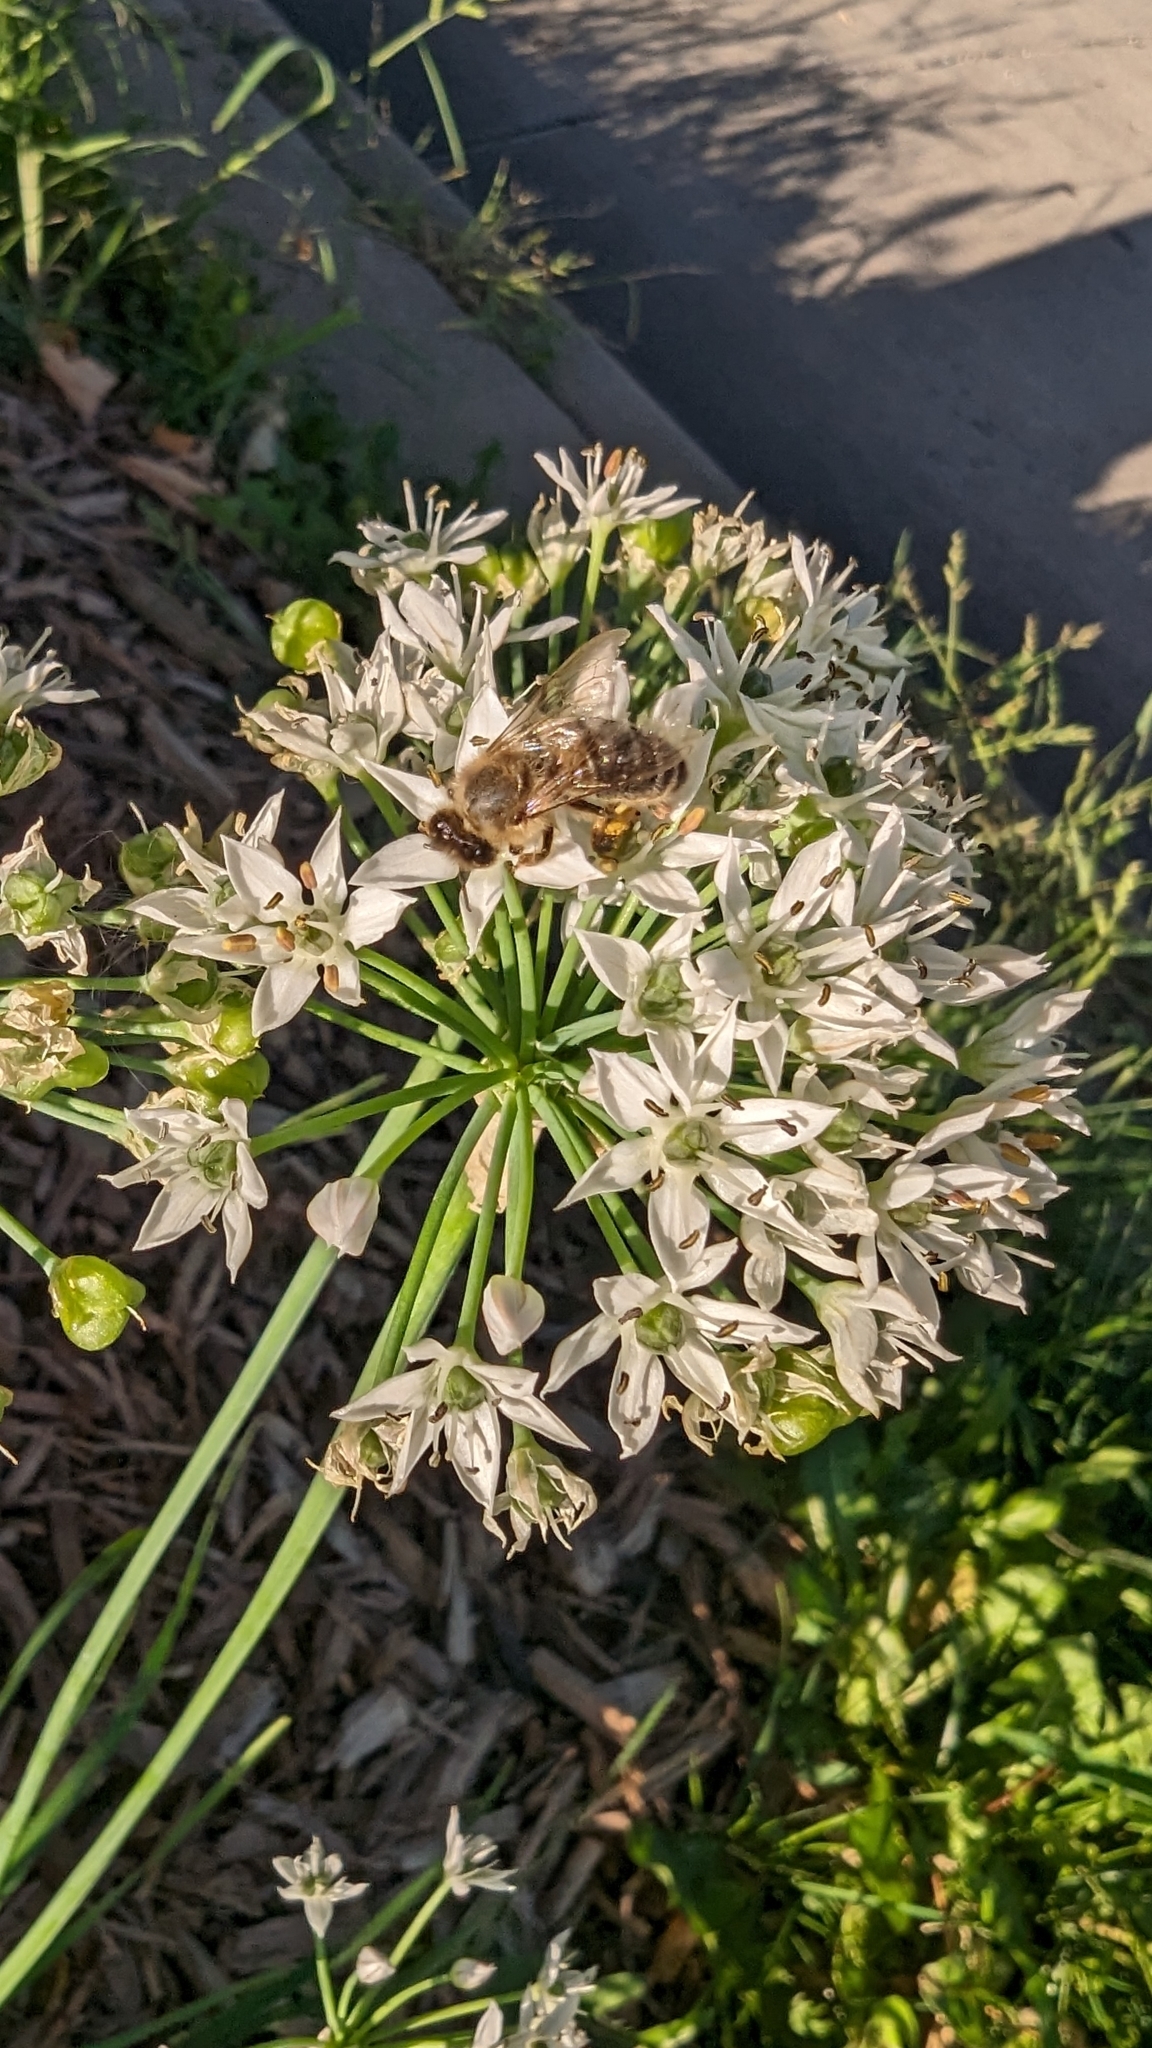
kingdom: Animalia
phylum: Arthropoda
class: Insecta
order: Hymenoptera
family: Apidae
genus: Apis
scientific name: Apis mellifera
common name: Honey bee
